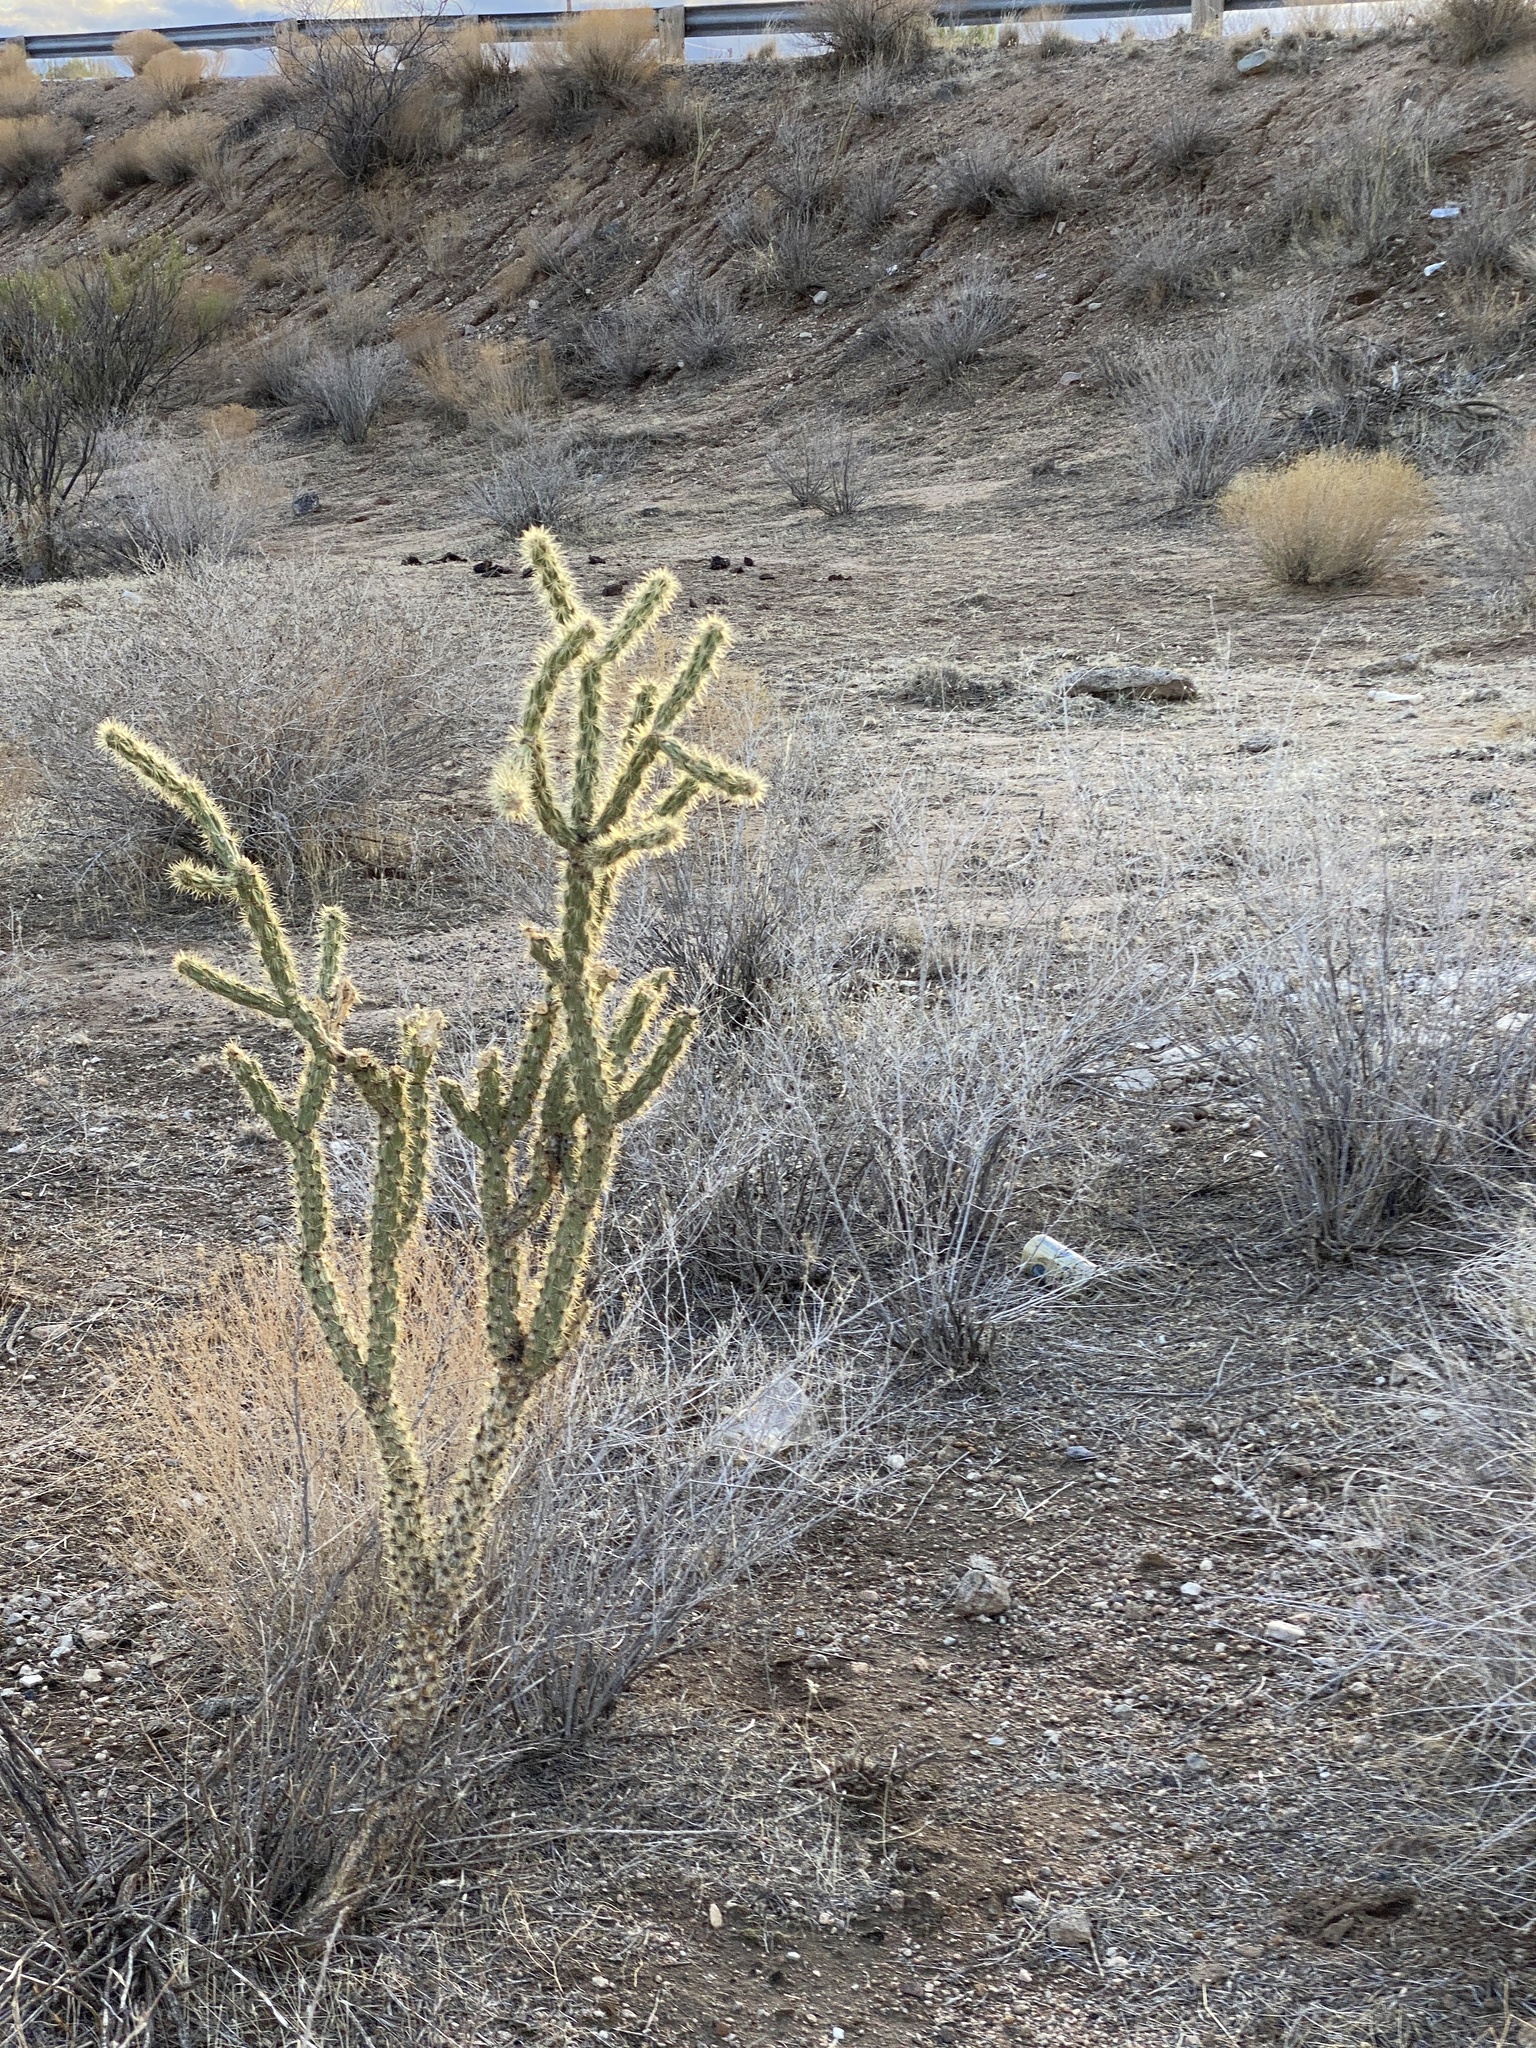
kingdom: Plantae
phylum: Tracheophyta
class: Magnoliopsida
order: Caryophyllales
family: Cactaceae
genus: Cylindropuntia
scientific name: Cylindropuntia acanthocarpa
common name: Buckhorn cholla
